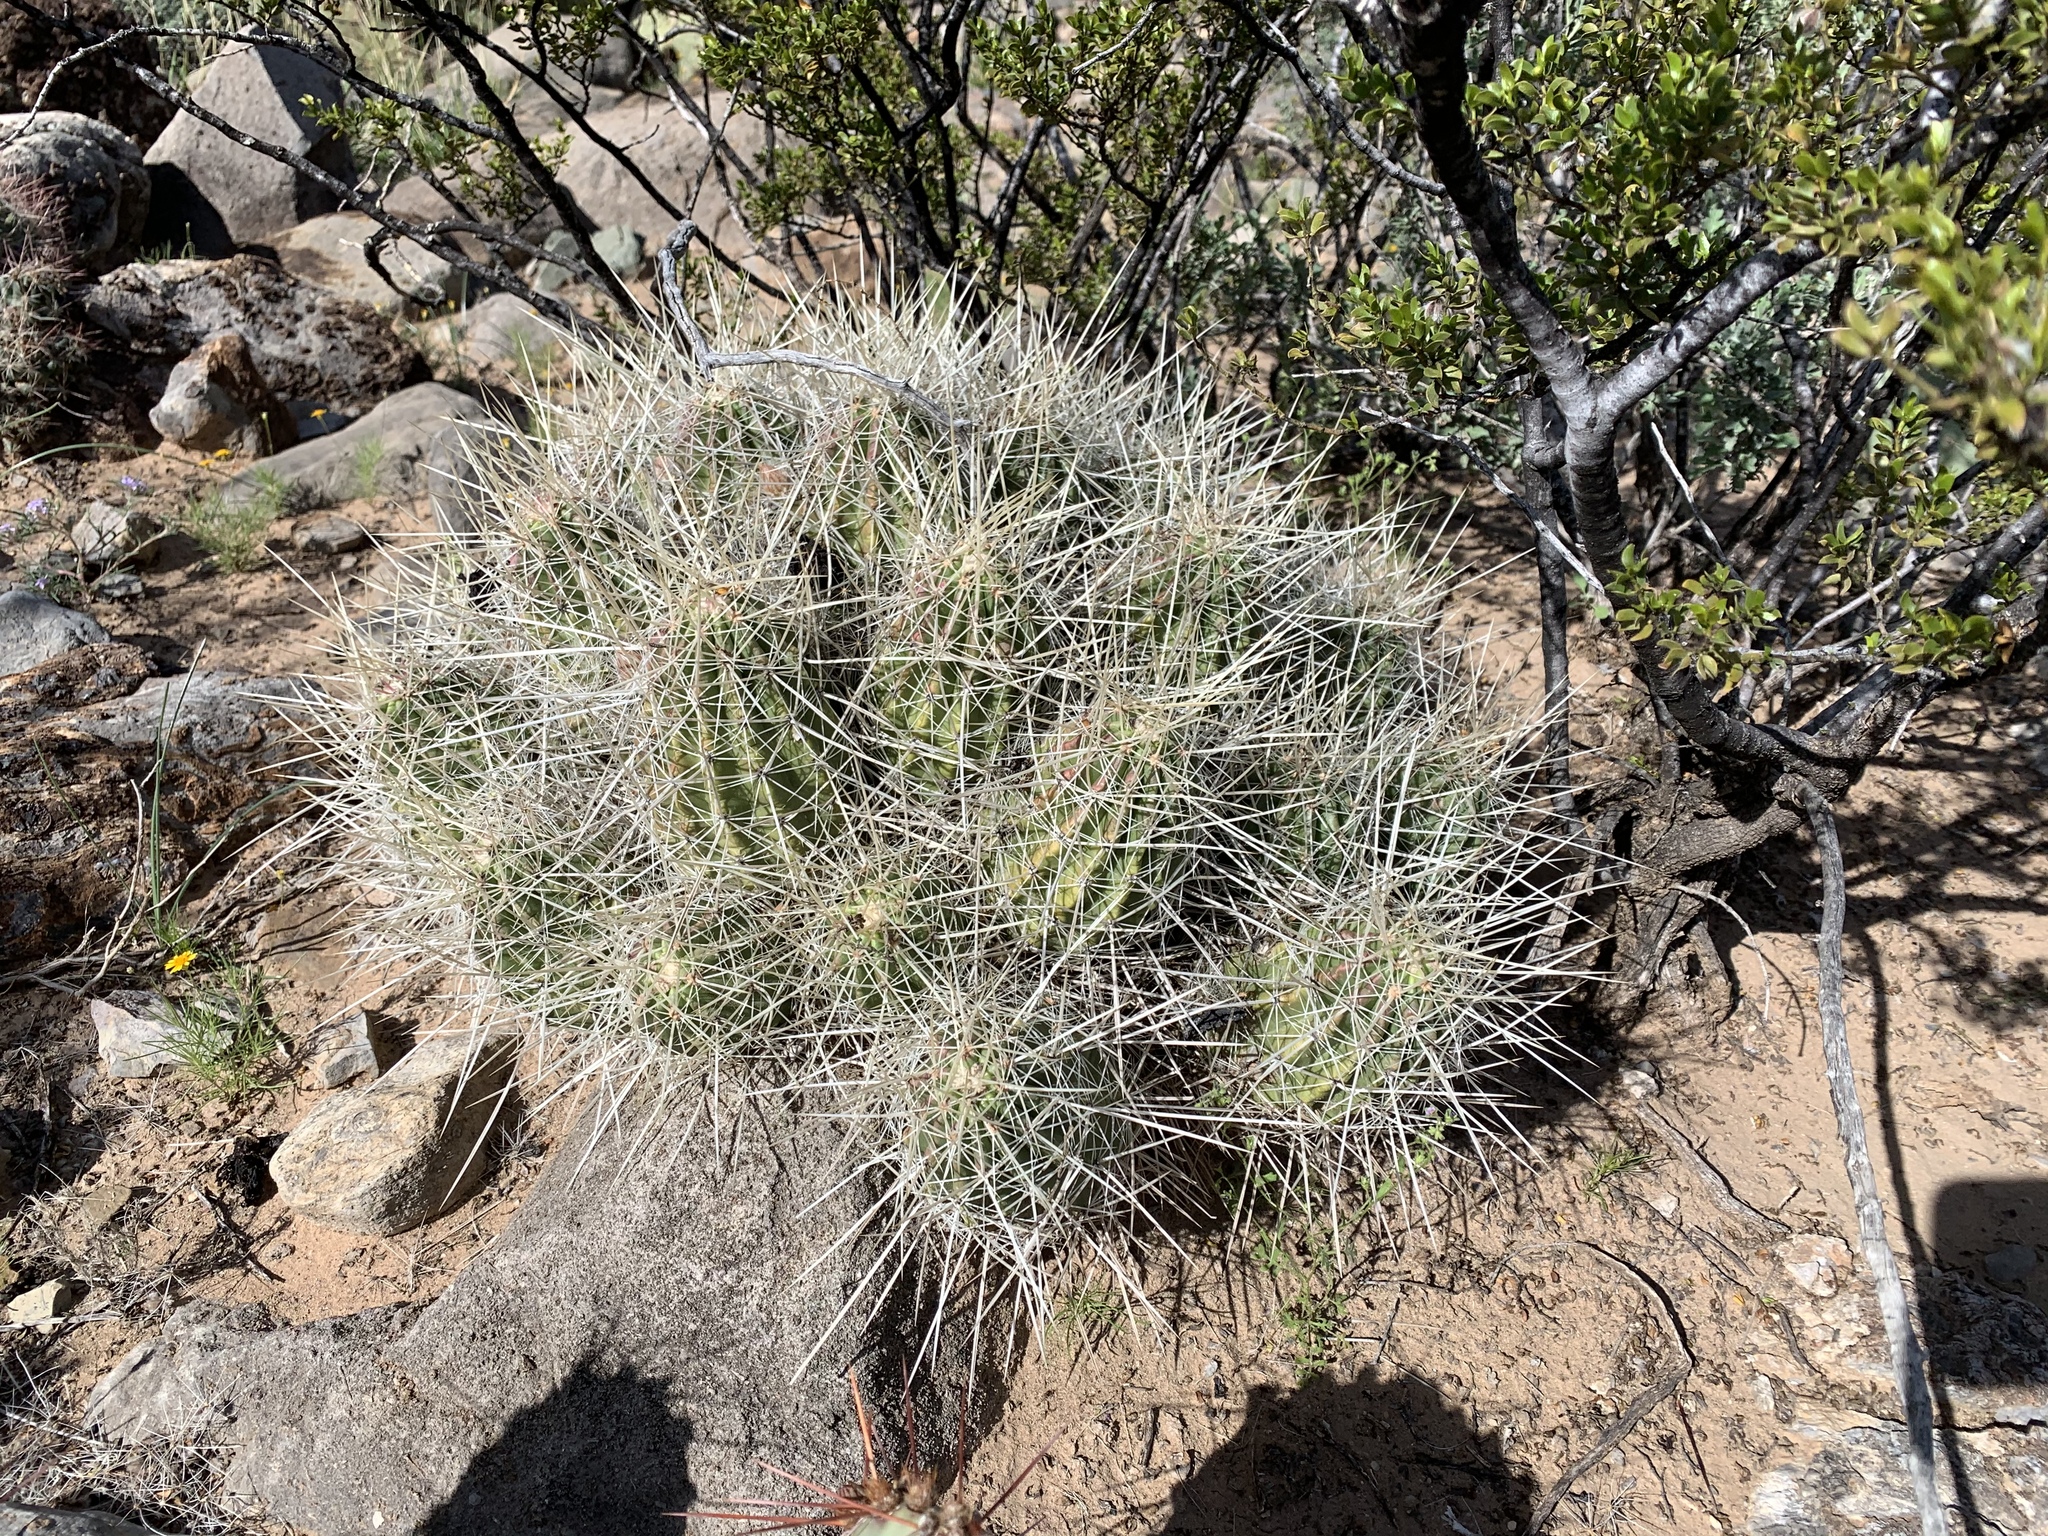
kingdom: Plantae
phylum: Tracheophyta
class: Magnoliopsida
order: Caryophyllales
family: Cactaceae
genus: Echinocereus
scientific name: Echinocereus stramineus
